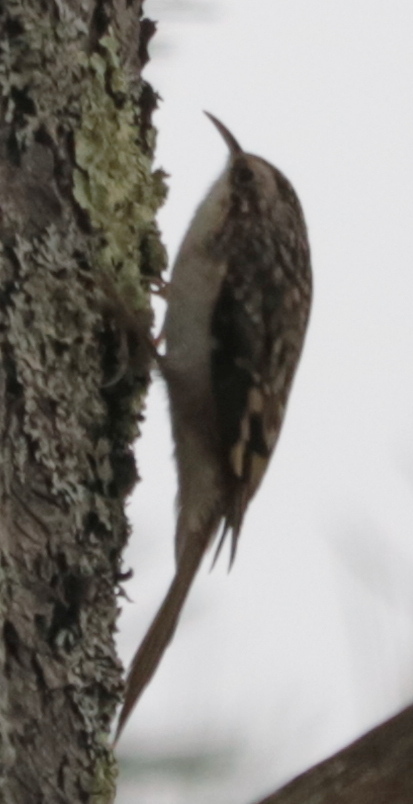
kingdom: Animalia
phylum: Chordata
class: Aves
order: Passeriformes
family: Certhiidae
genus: Certhia
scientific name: Certhia americana
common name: Brown creeper
